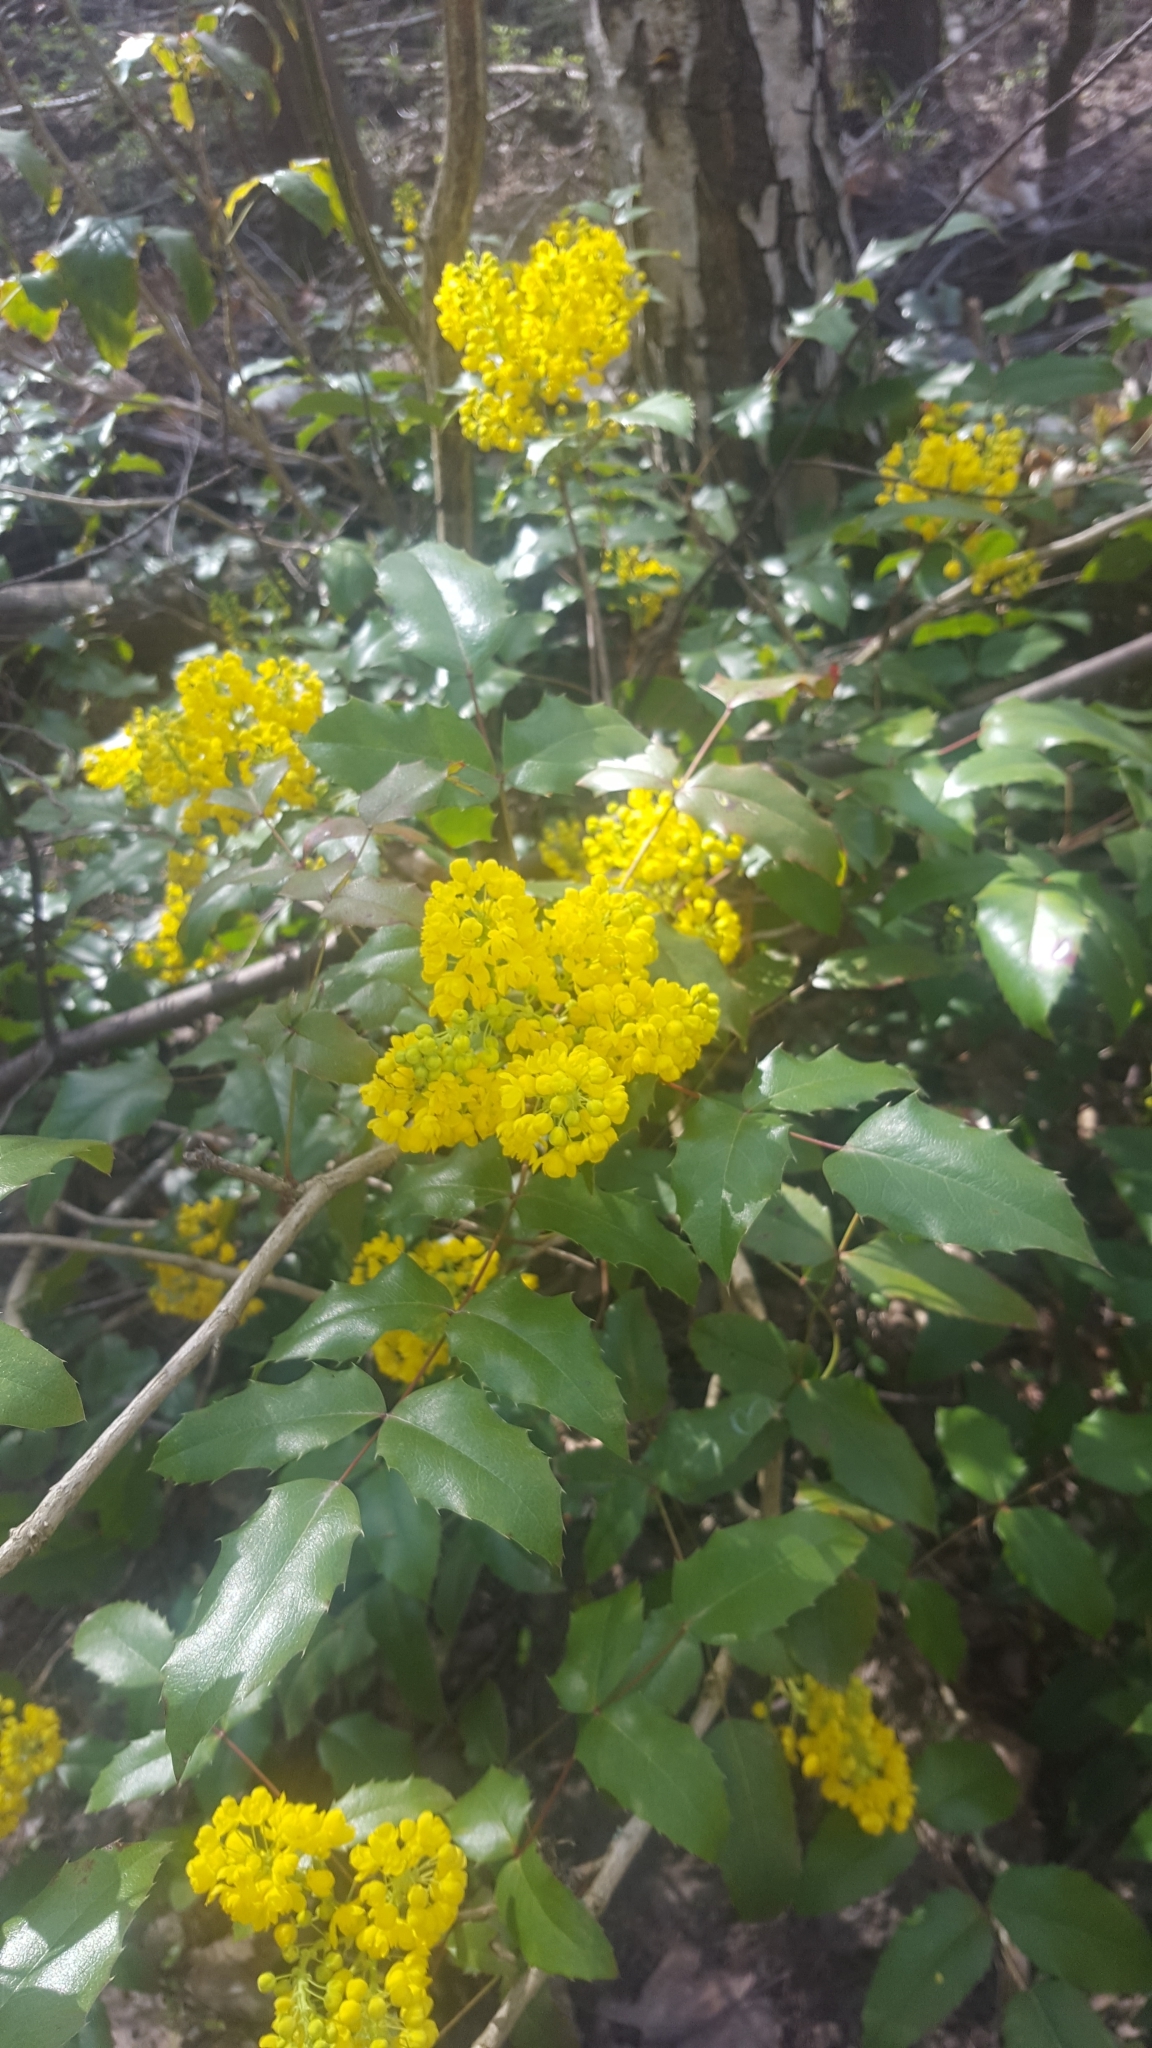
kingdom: Plantae
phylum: Tracheophyta
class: Magnoliopsida
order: Ranunculales
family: Berberidaceae
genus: Mahonia
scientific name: Mahonia aquifolium
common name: Oregon-grape
